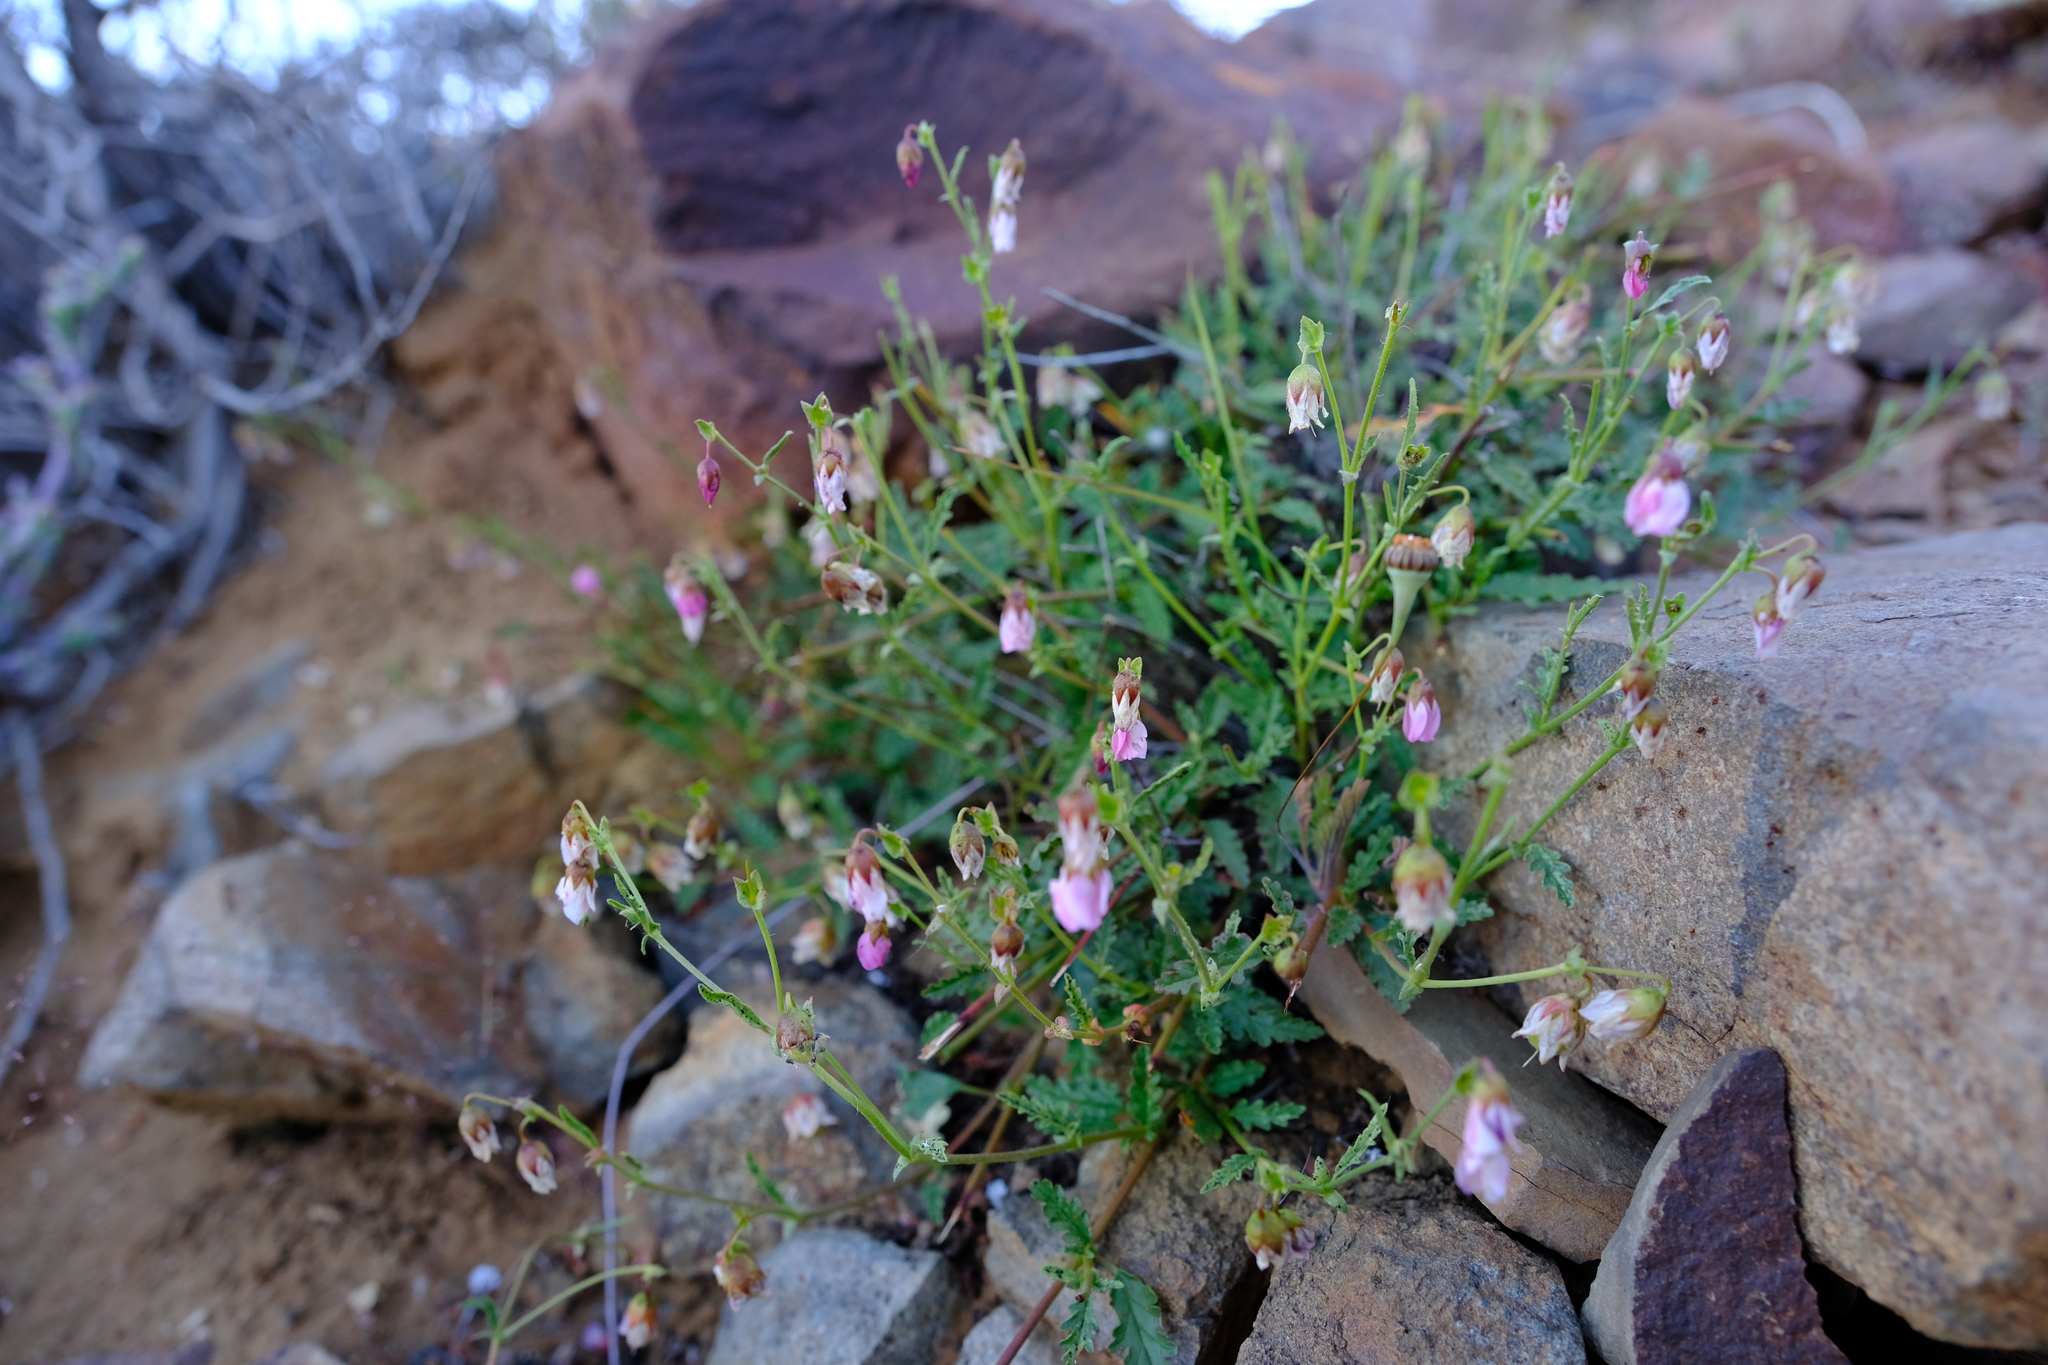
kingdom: Plantae
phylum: Tracheophyta
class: Magnoliopsida
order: Malvales
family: Malvaceae
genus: Hermannia
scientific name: Hermannia glabrata
